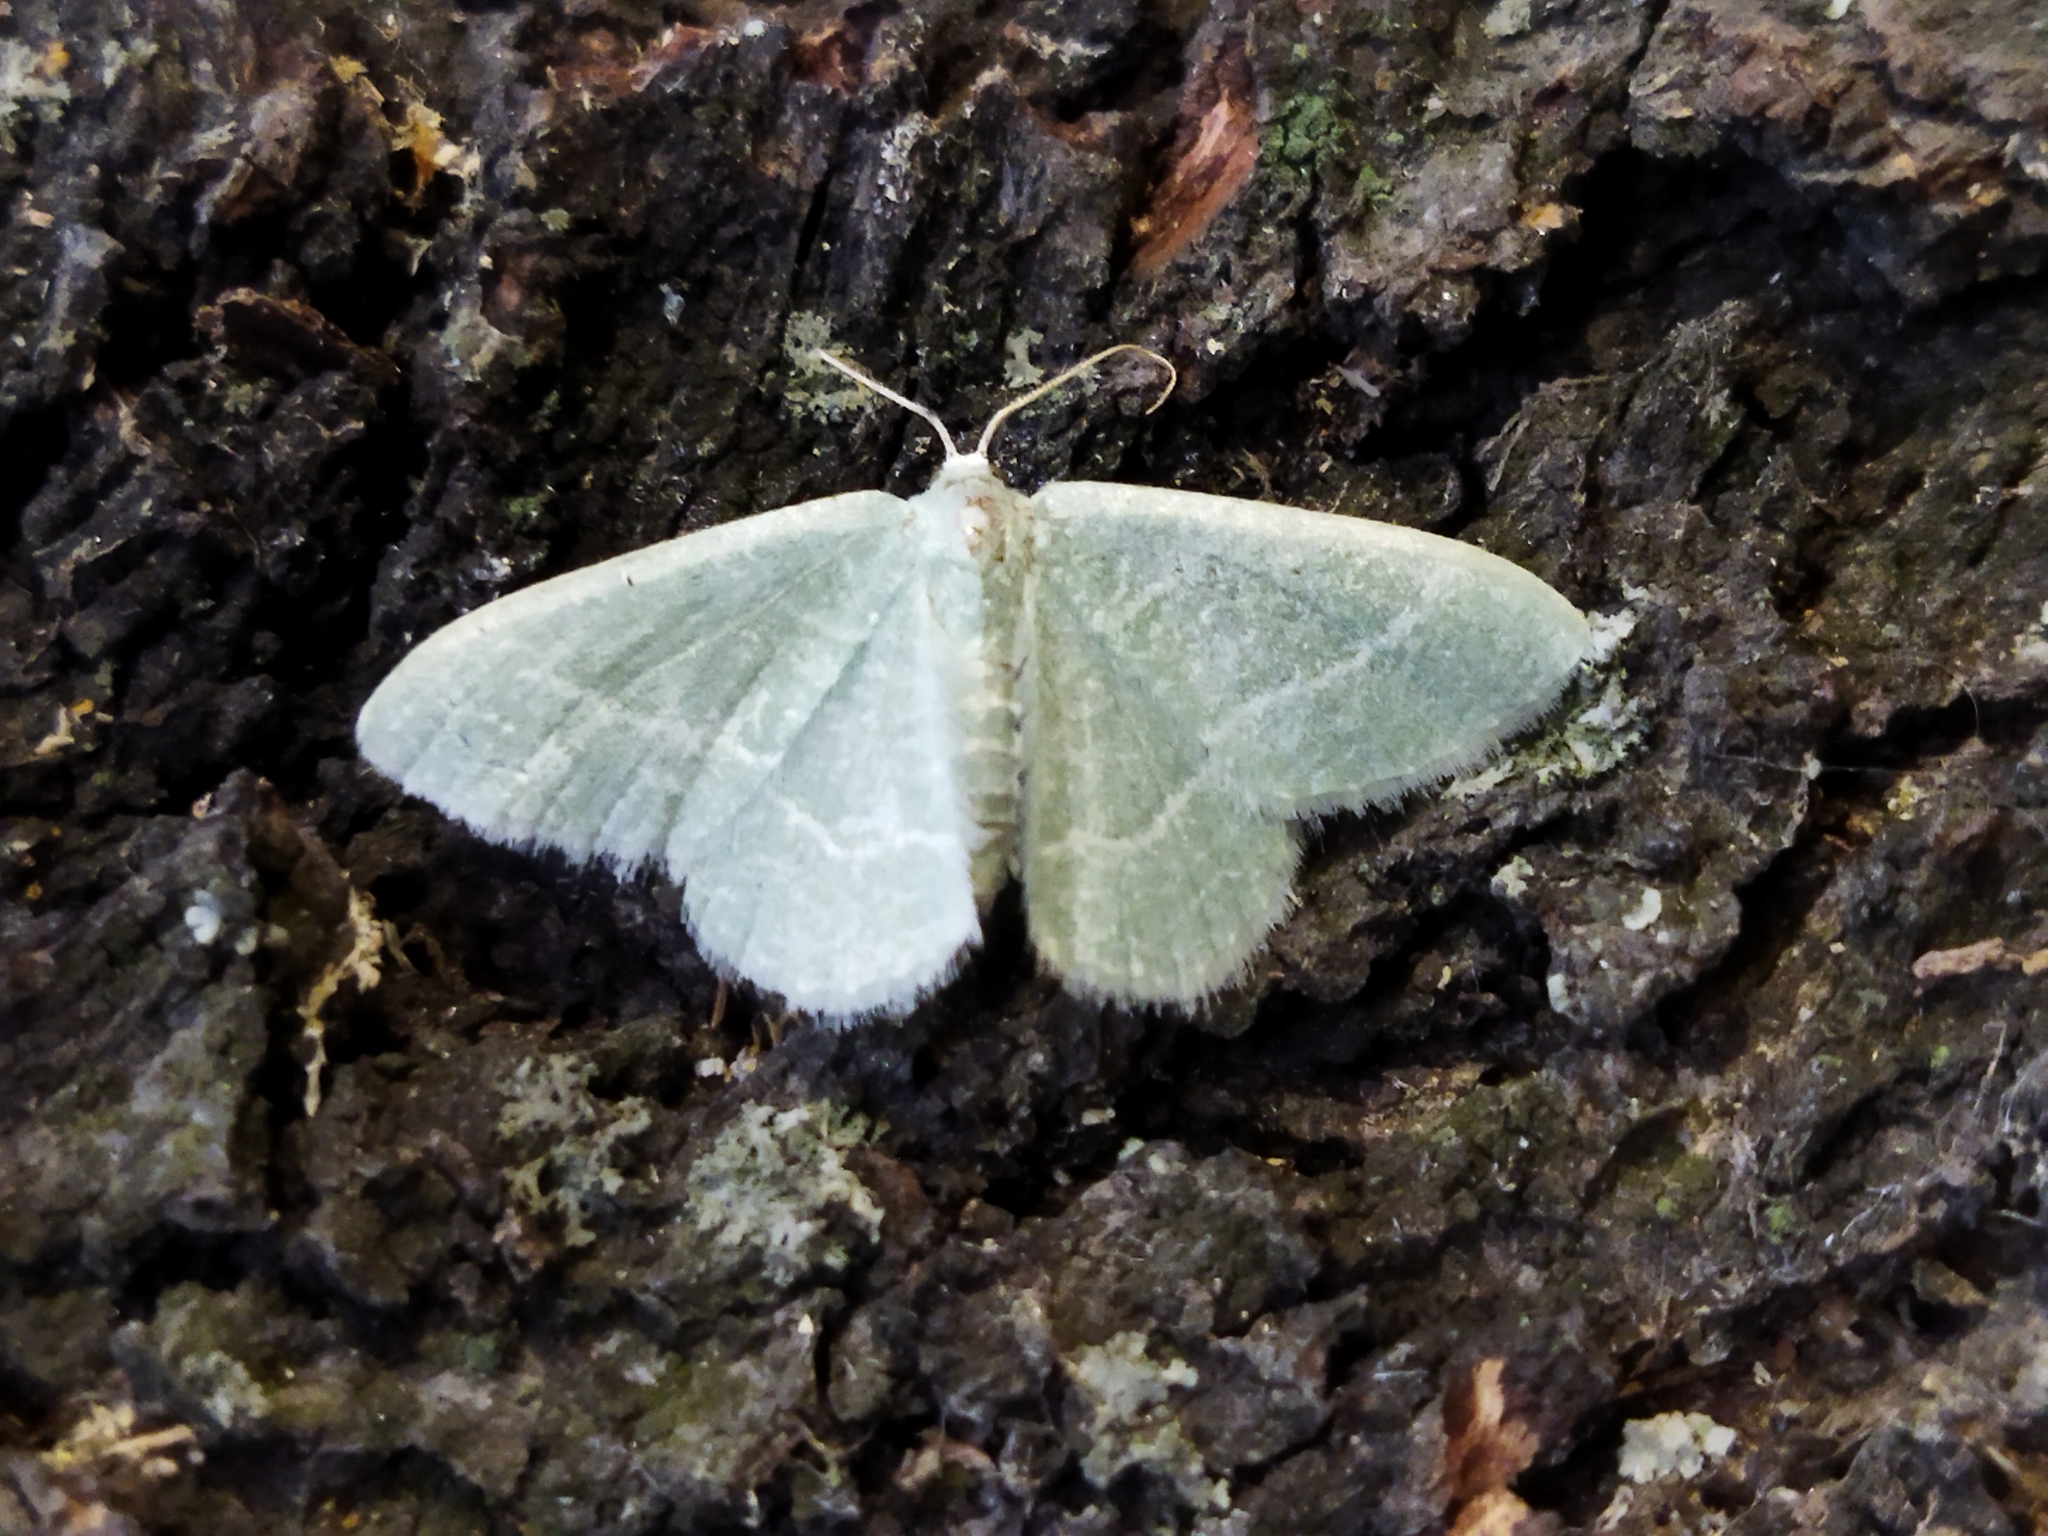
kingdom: Animalia
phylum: Arthropoda
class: Insecta
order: Lepidoptera
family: Geometridae
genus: Chlorissa
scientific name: Chlorissa etruscaria
